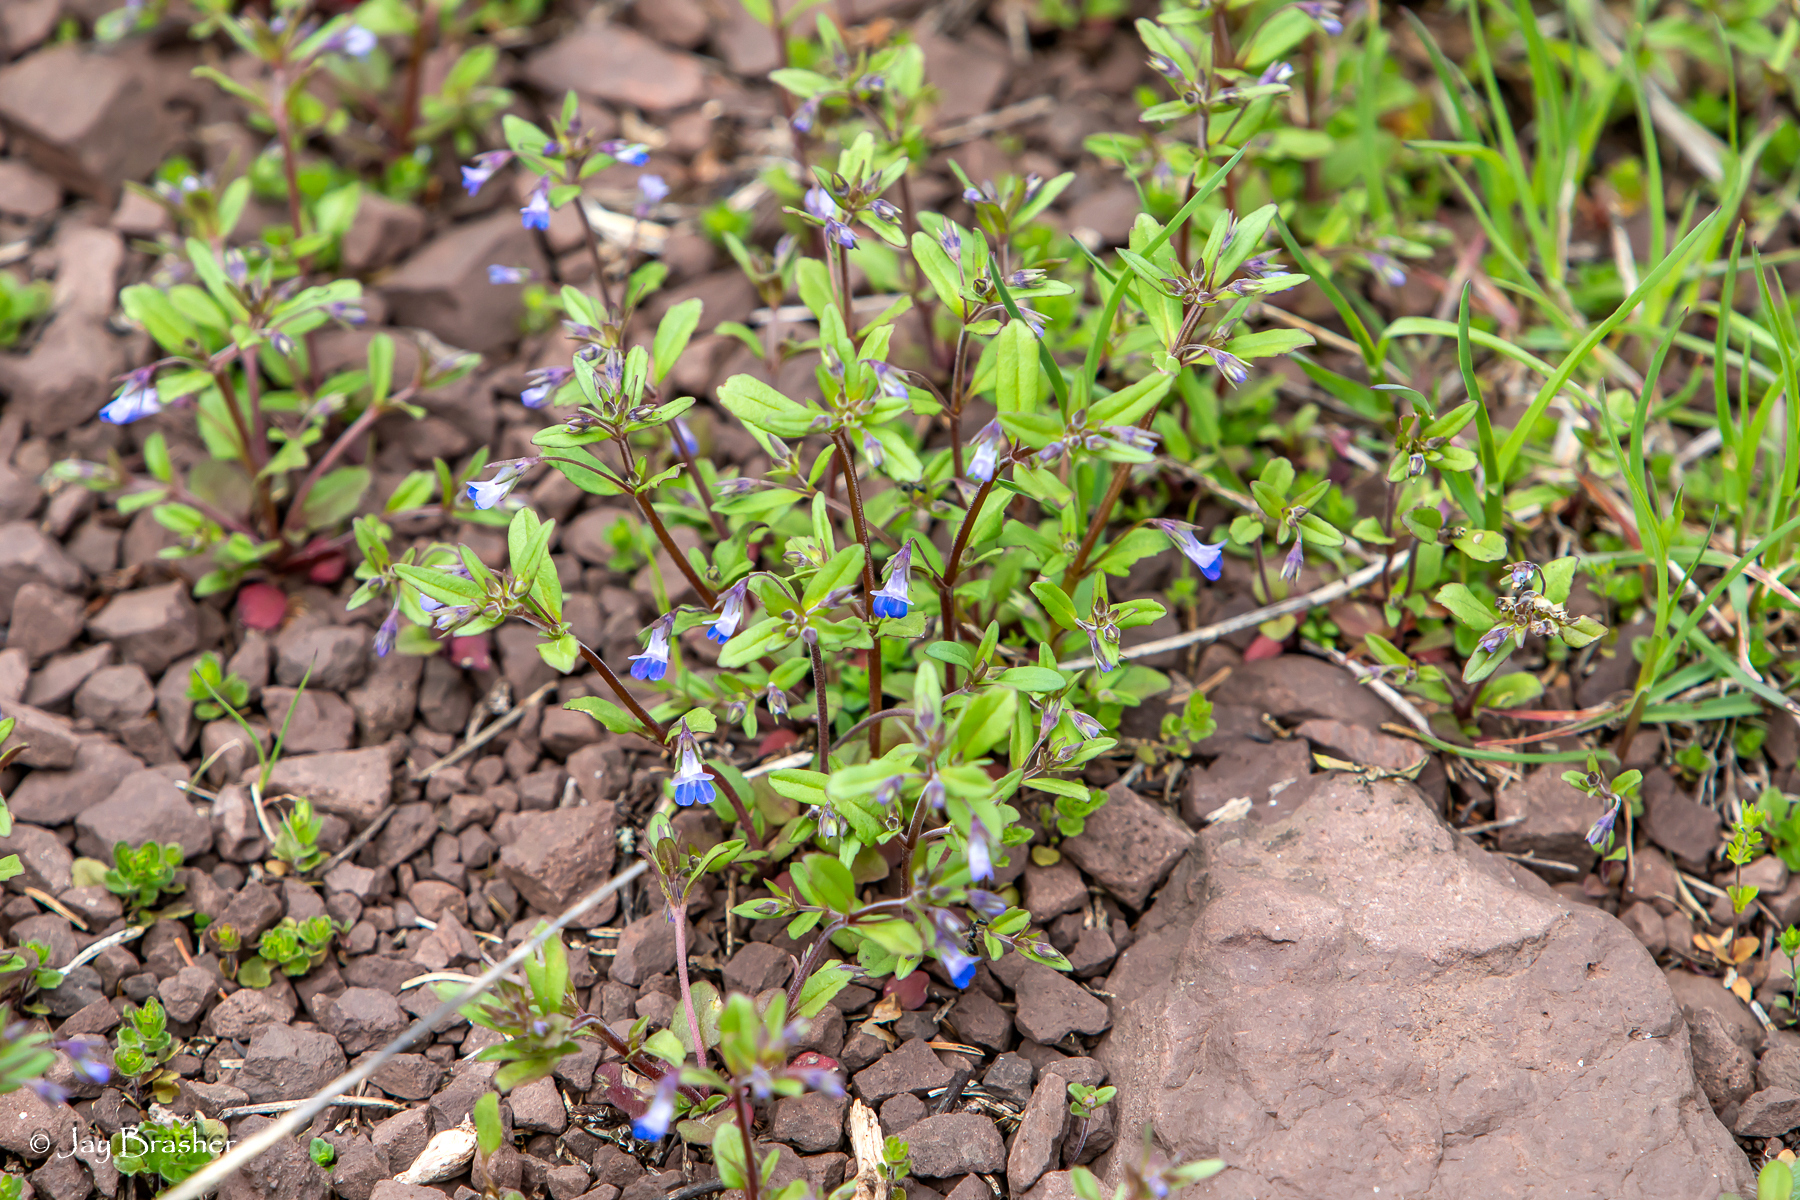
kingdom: Plantae
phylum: Tracheophyta
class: Magnoliopsida
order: Lamiales
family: Plantaginaceae
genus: Collinsia
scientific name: Collinsia parviflora
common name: Blue-lips
